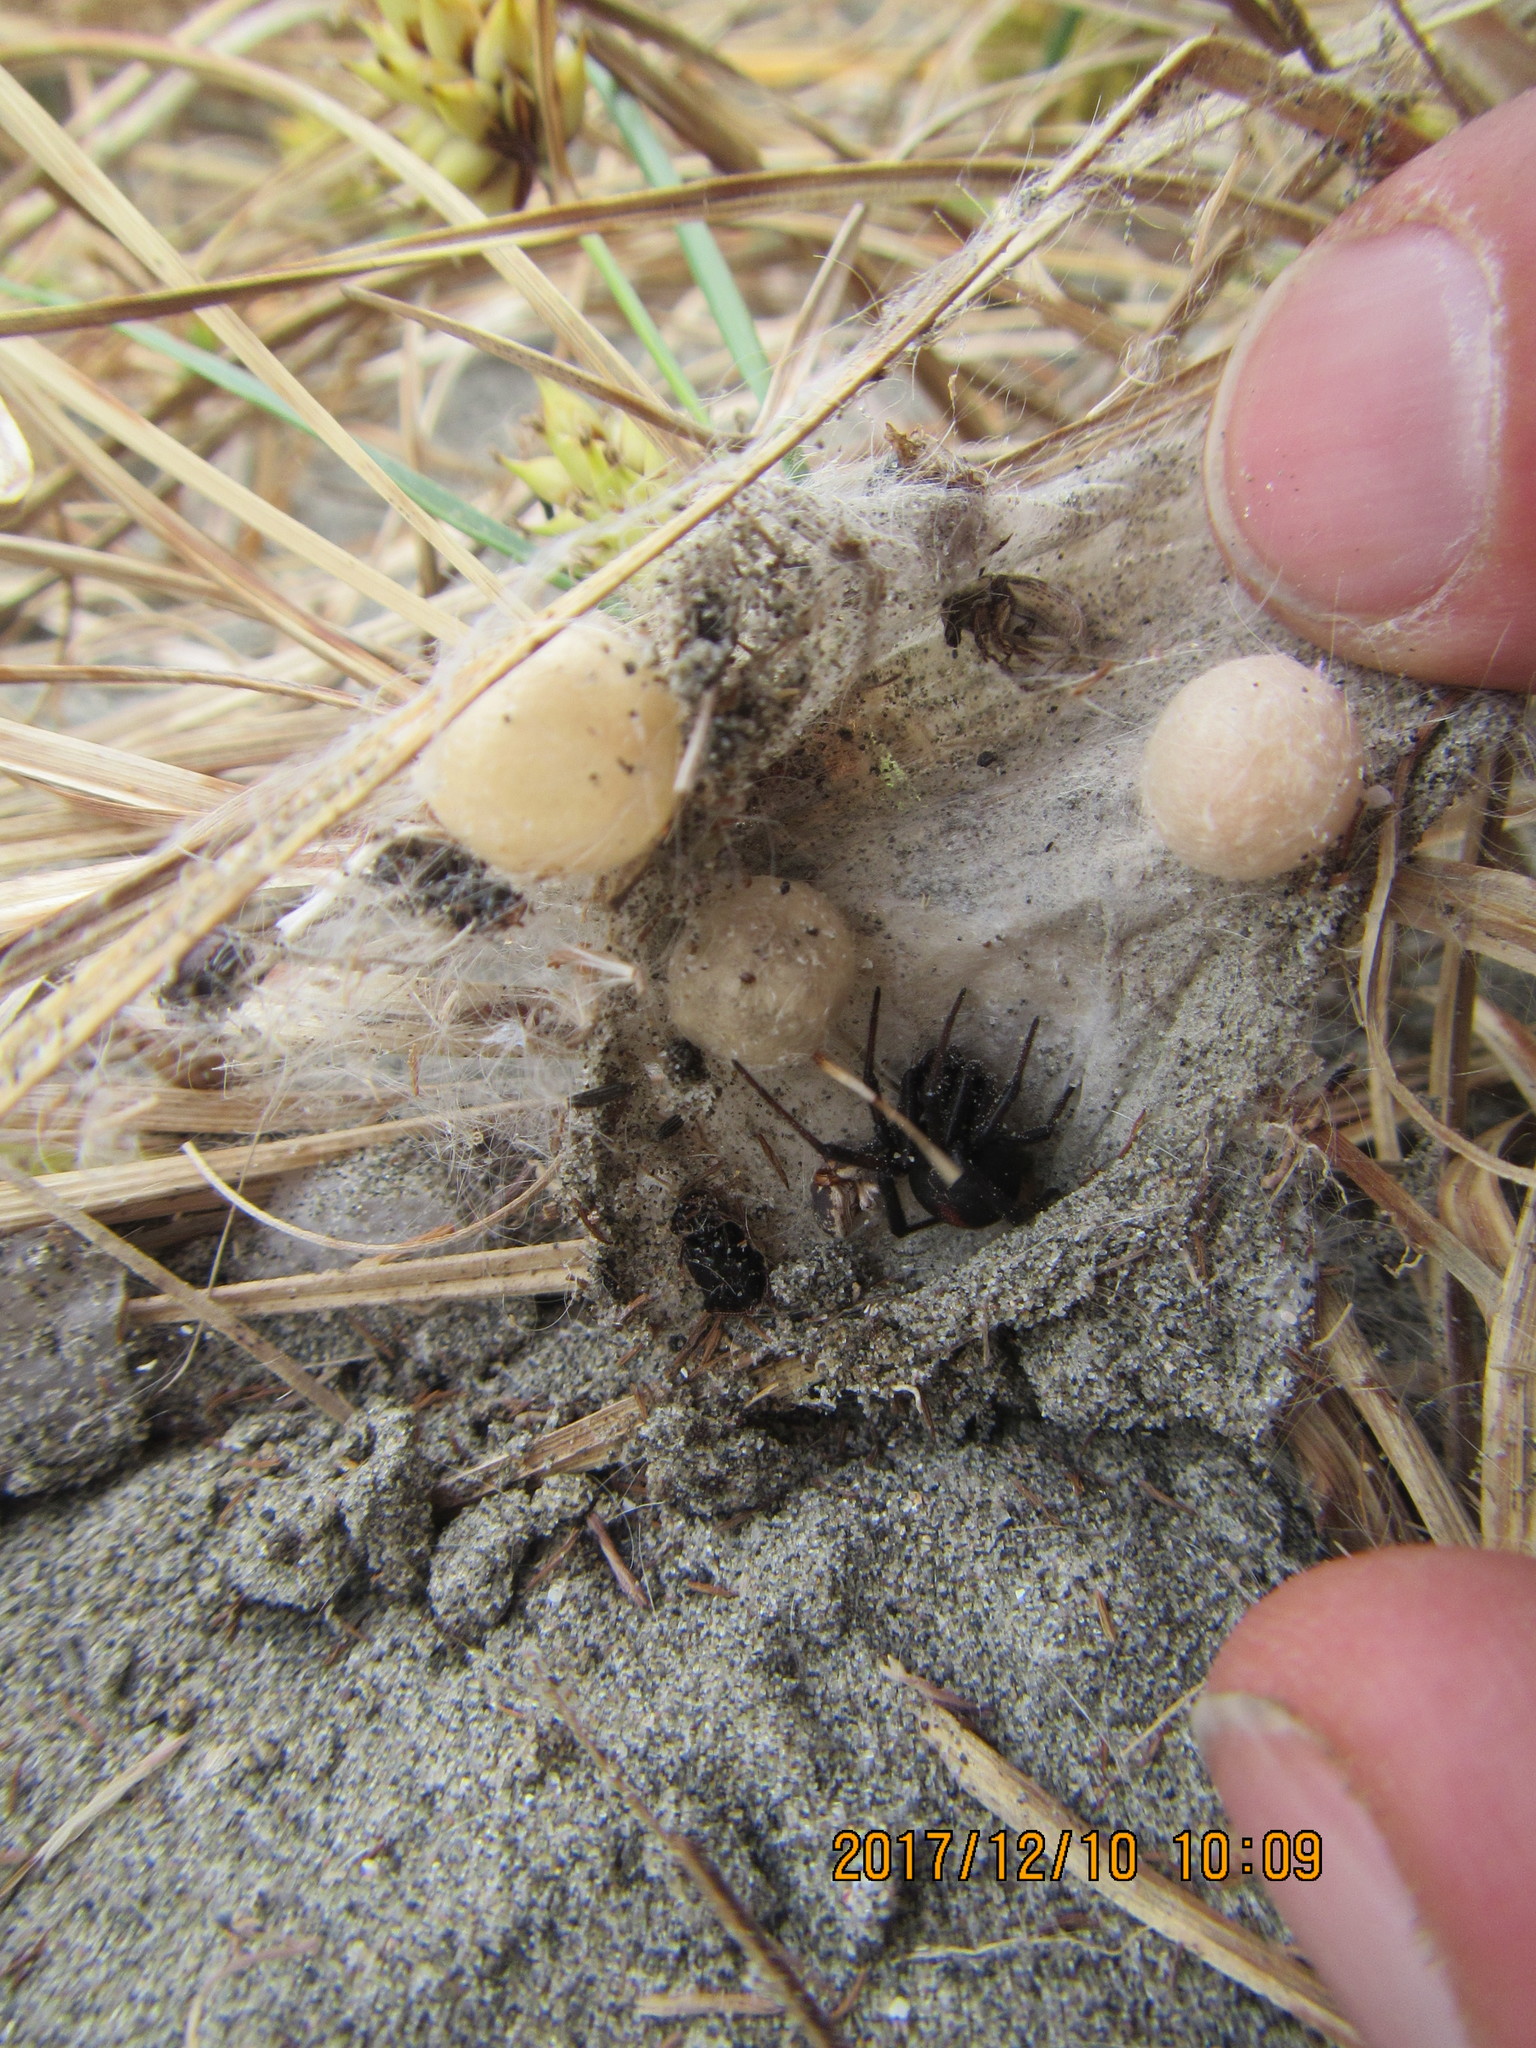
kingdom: Animalia
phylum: Arthropoda
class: Arachnida
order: Araneae
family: Theridiidae
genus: Latrodectus
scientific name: Latrodectus katipo
